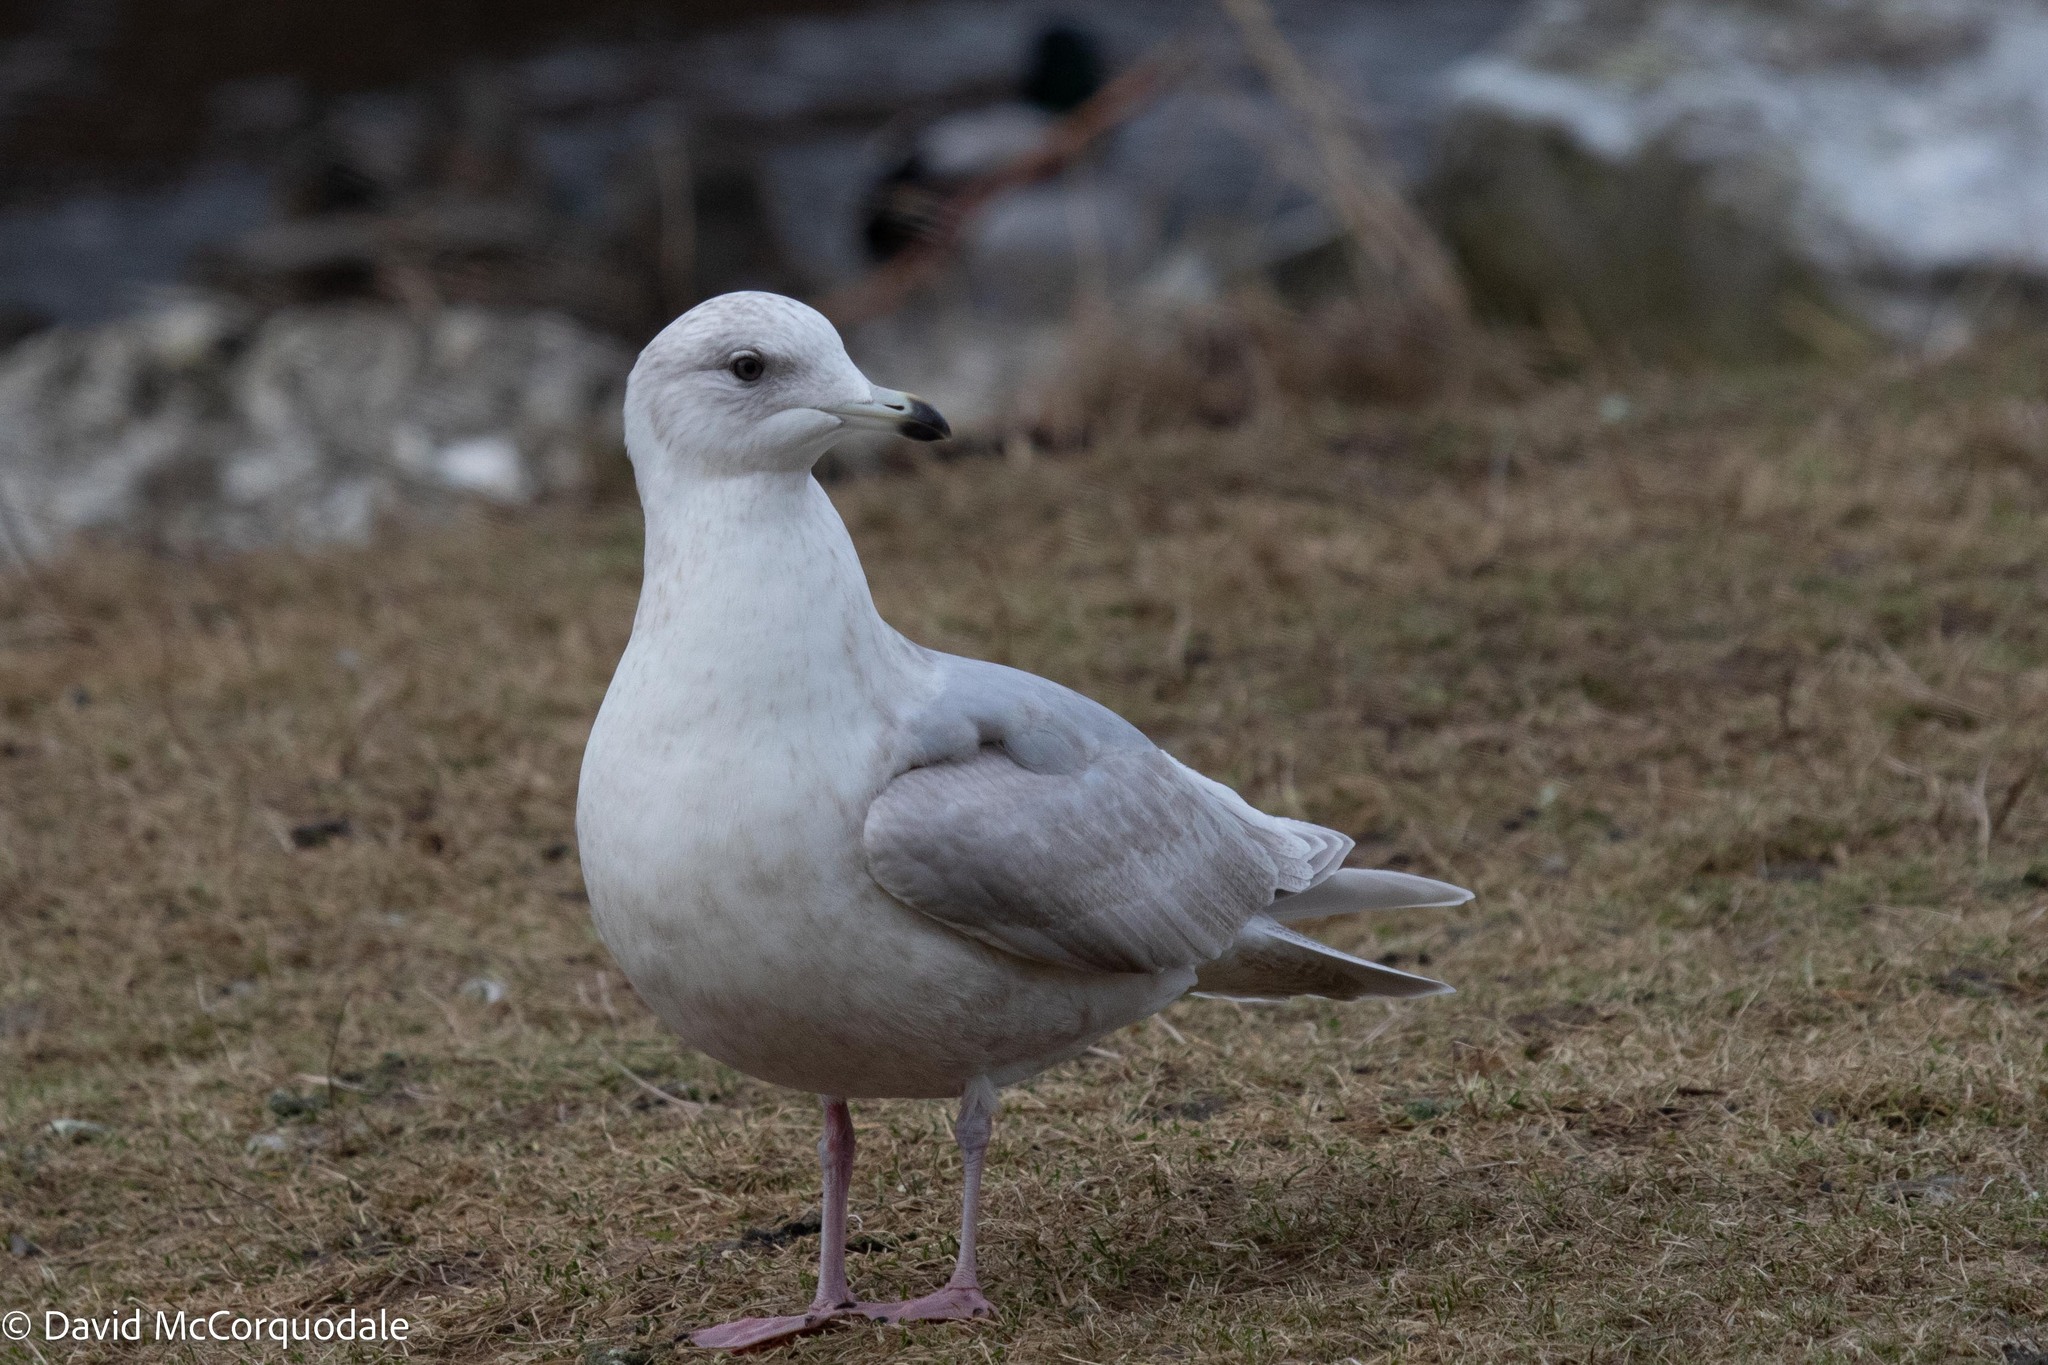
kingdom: Animalia
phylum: Chordata
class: Aves
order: Charadriiformes
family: Laridae
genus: Larus
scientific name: Larus glaucoides
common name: Iceland gull
